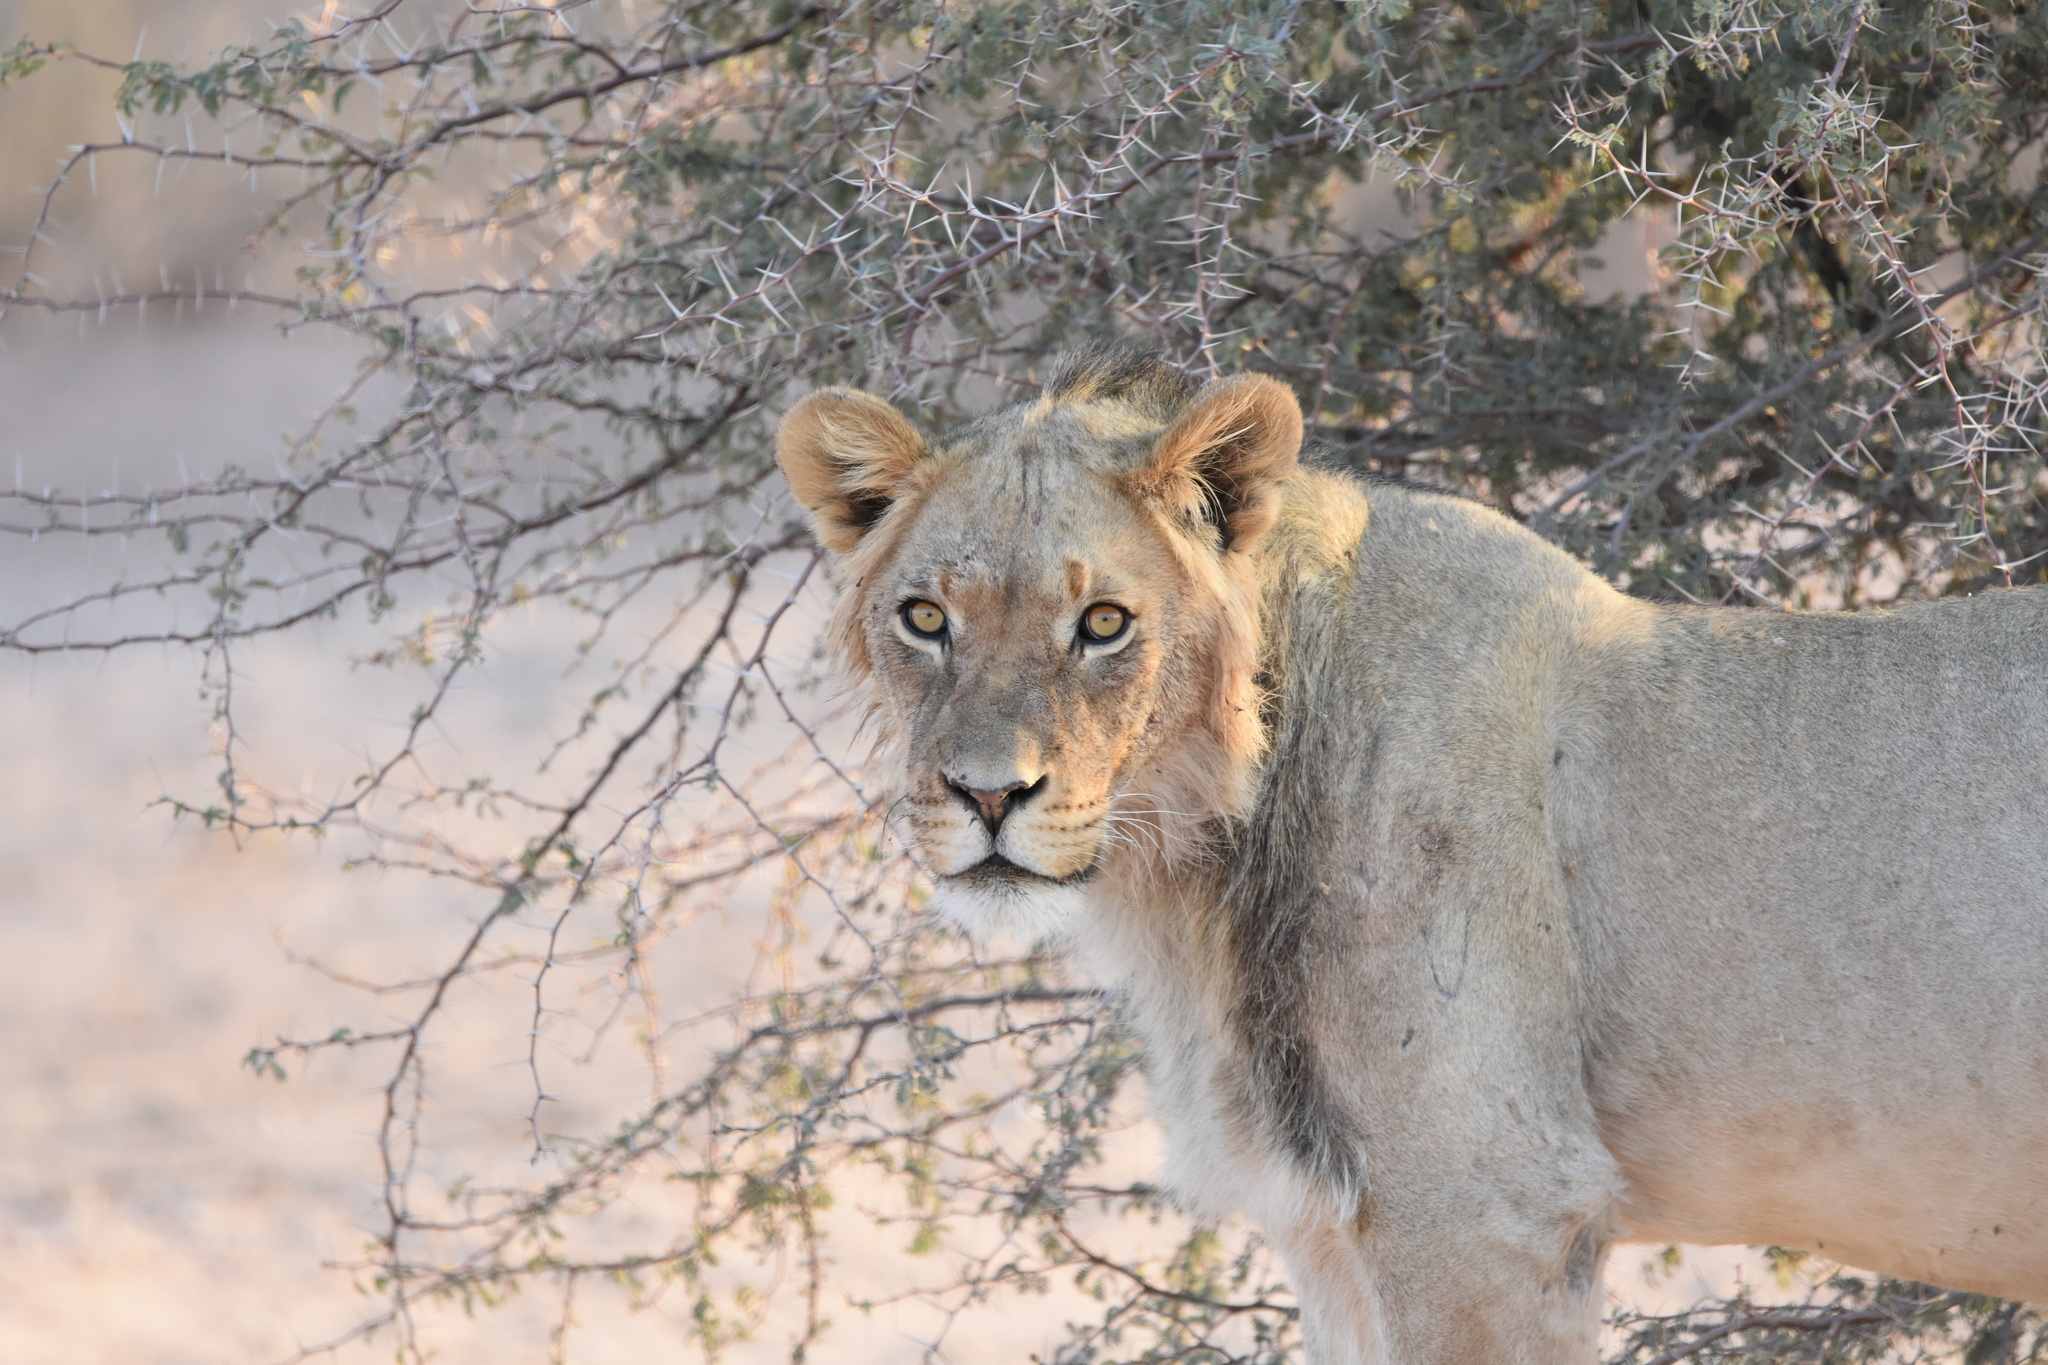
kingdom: Animalia
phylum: Chordata
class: Mammalia
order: Carnivora
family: Felidae
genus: Panthera
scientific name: Panthera leo
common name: Lion
